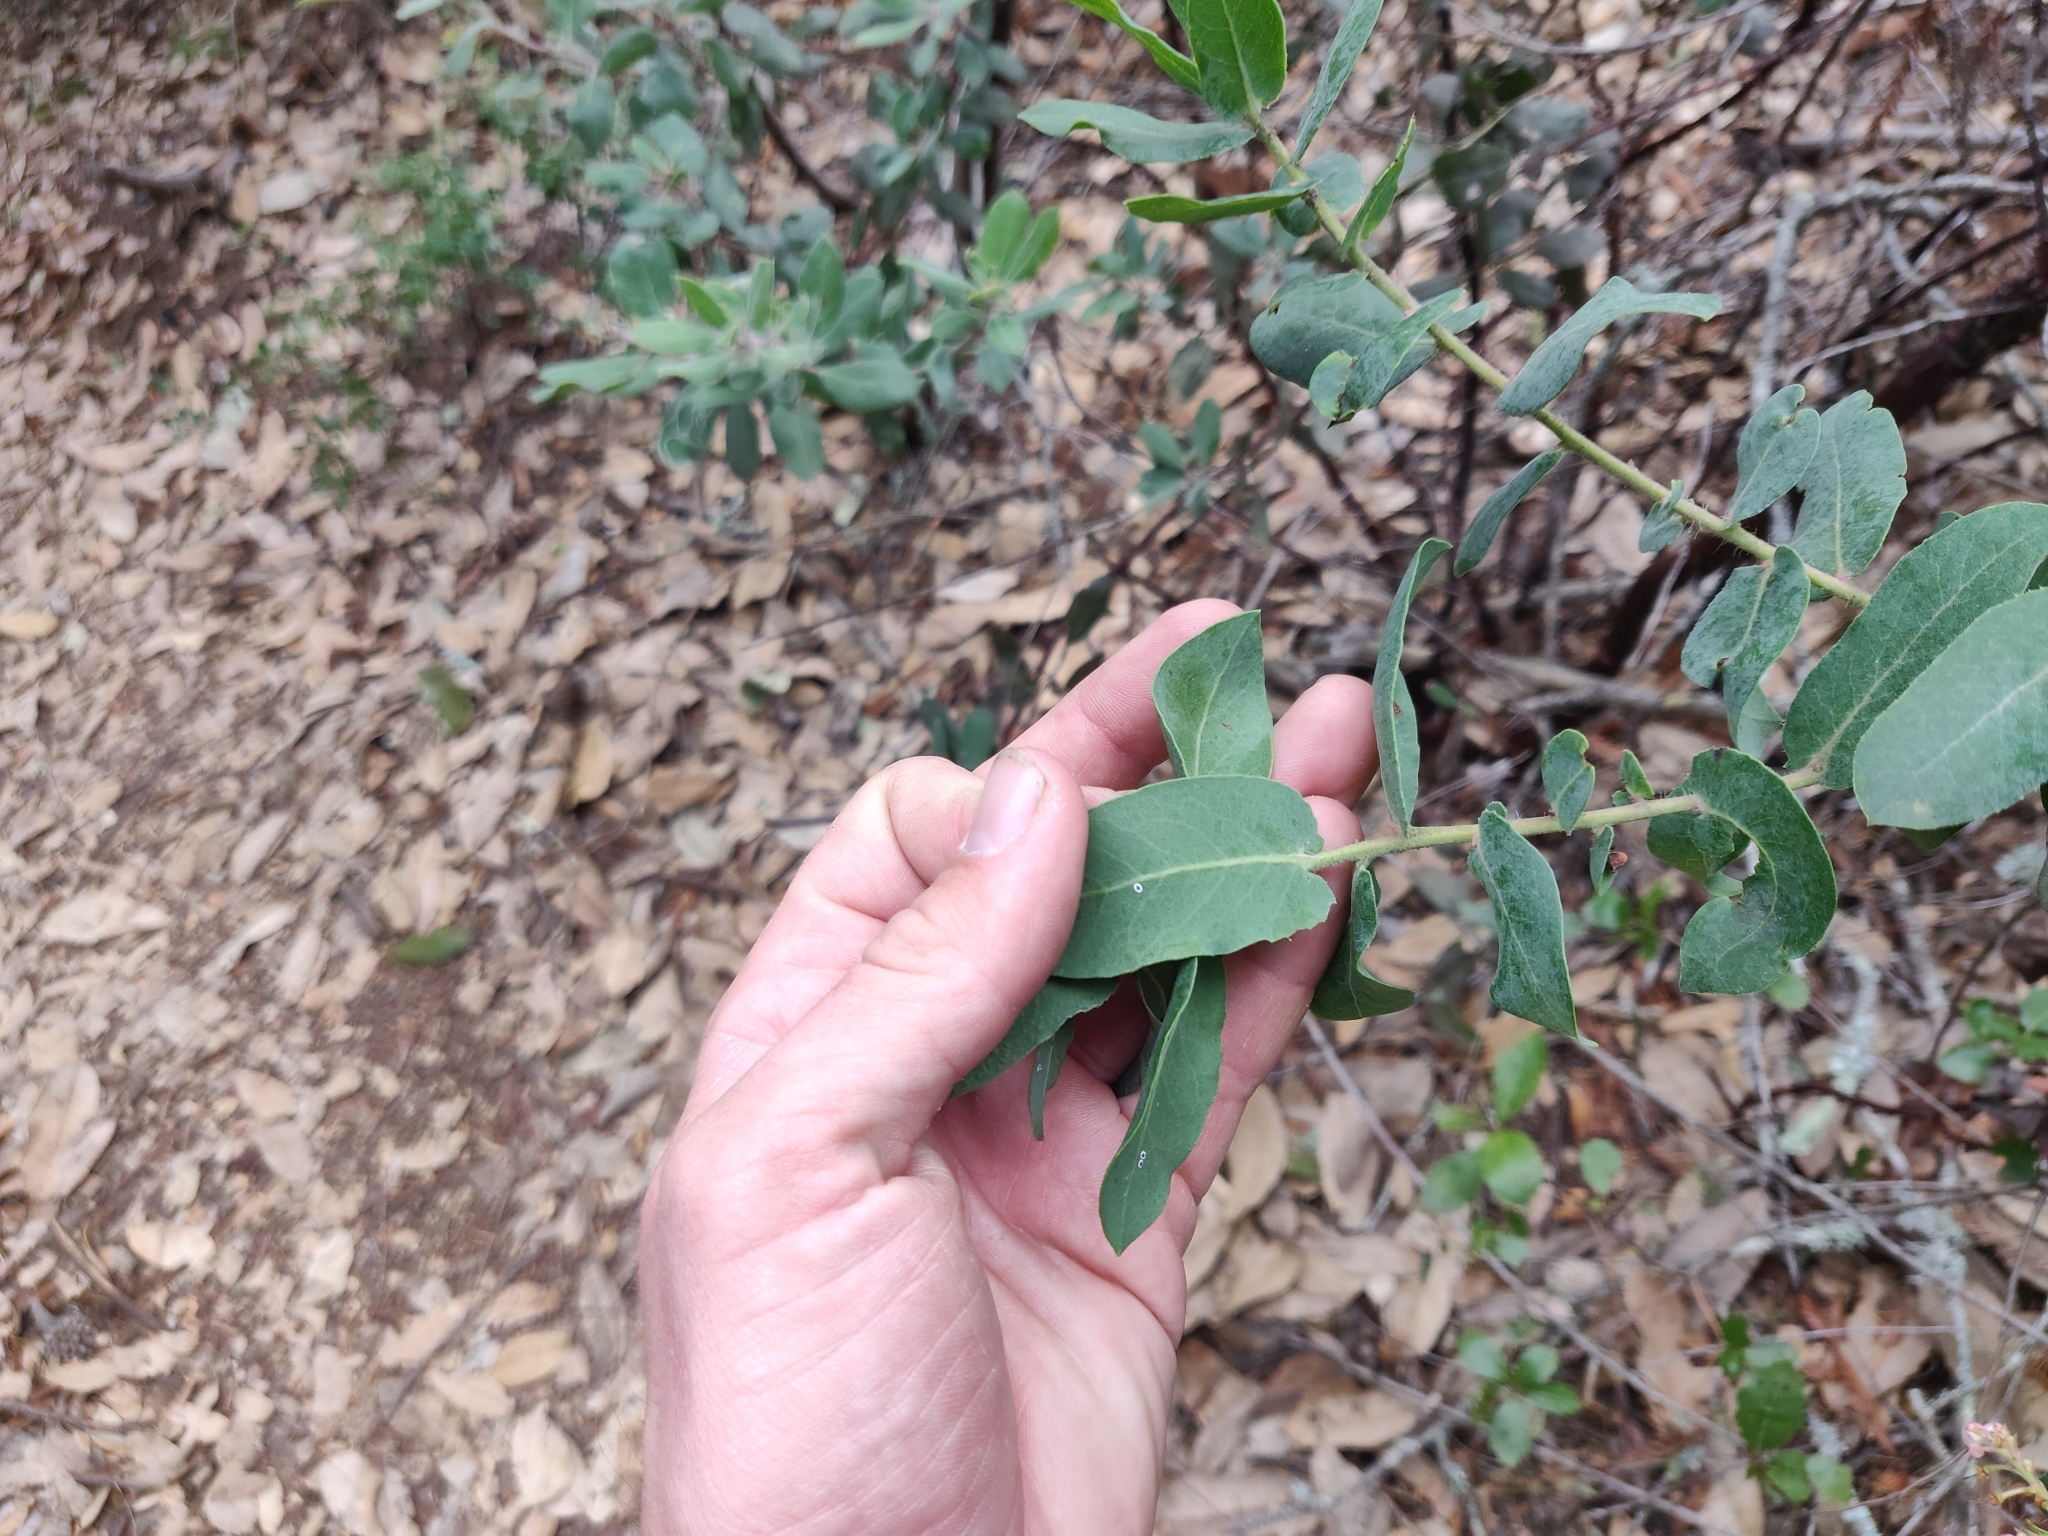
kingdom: Plantae
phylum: Tracheophyta
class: Magnoliopsida
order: Ericales
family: Ericaceae
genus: Arctostaphylos
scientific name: Arctostaphylos andersonii
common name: Santa cruz manzanita
